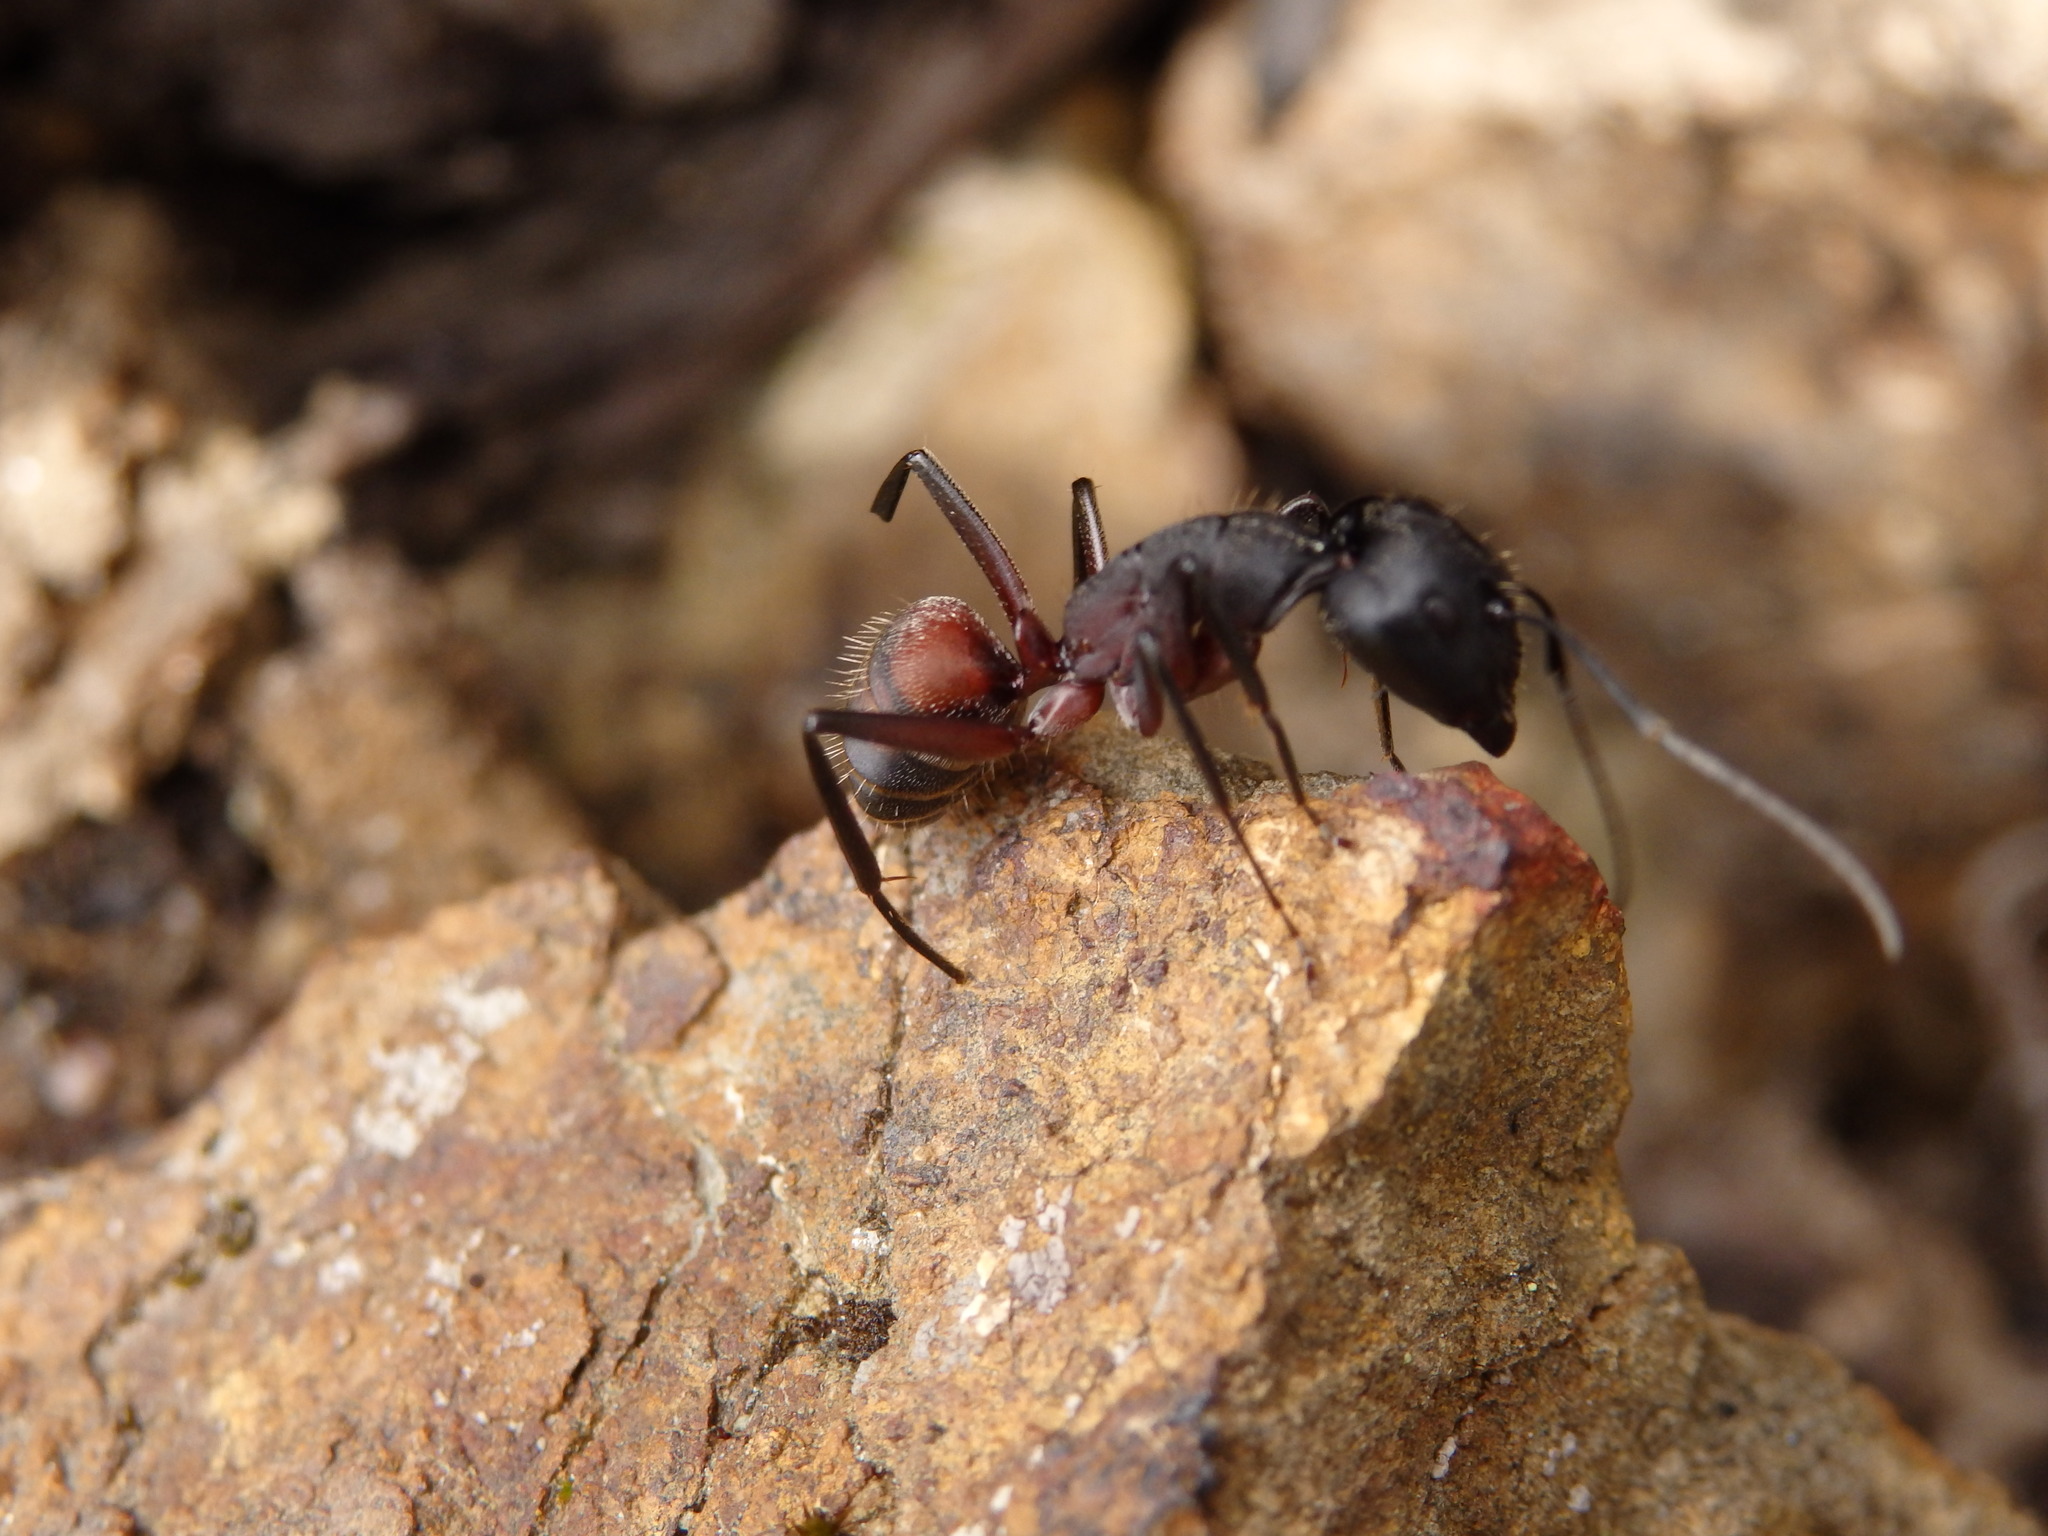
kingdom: Animalia
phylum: Arthropoda
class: Insecta
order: Hymenoptera
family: Formicidae
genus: Camponotus
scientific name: Camponotus cruentatus
